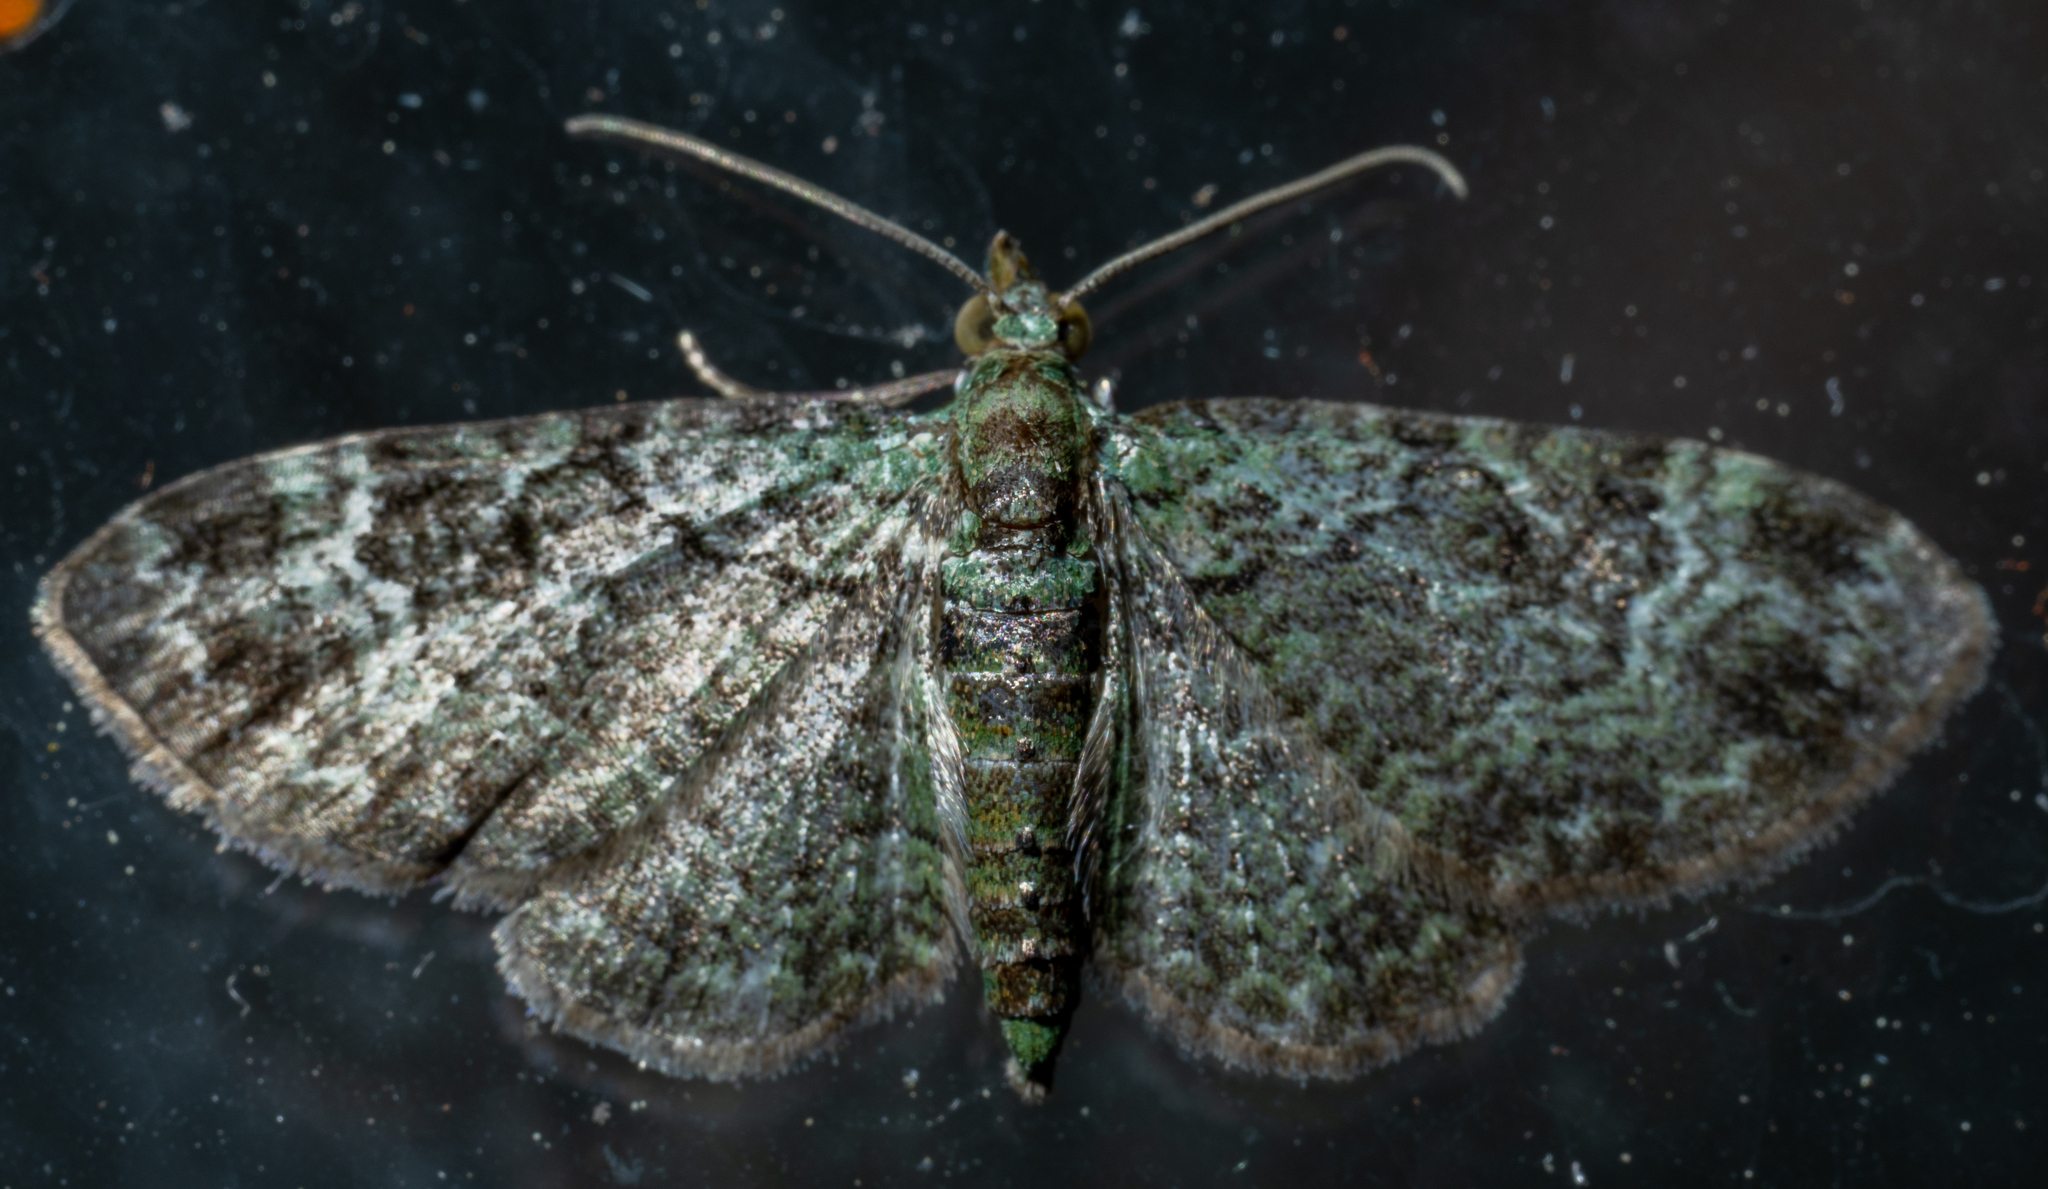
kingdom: Animalia
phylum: Arthropoda
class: Insecta
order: Lepidoptera
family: Geometridae
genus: Pasiphila
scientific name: Pasiphila rectangulata
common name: Green pug
